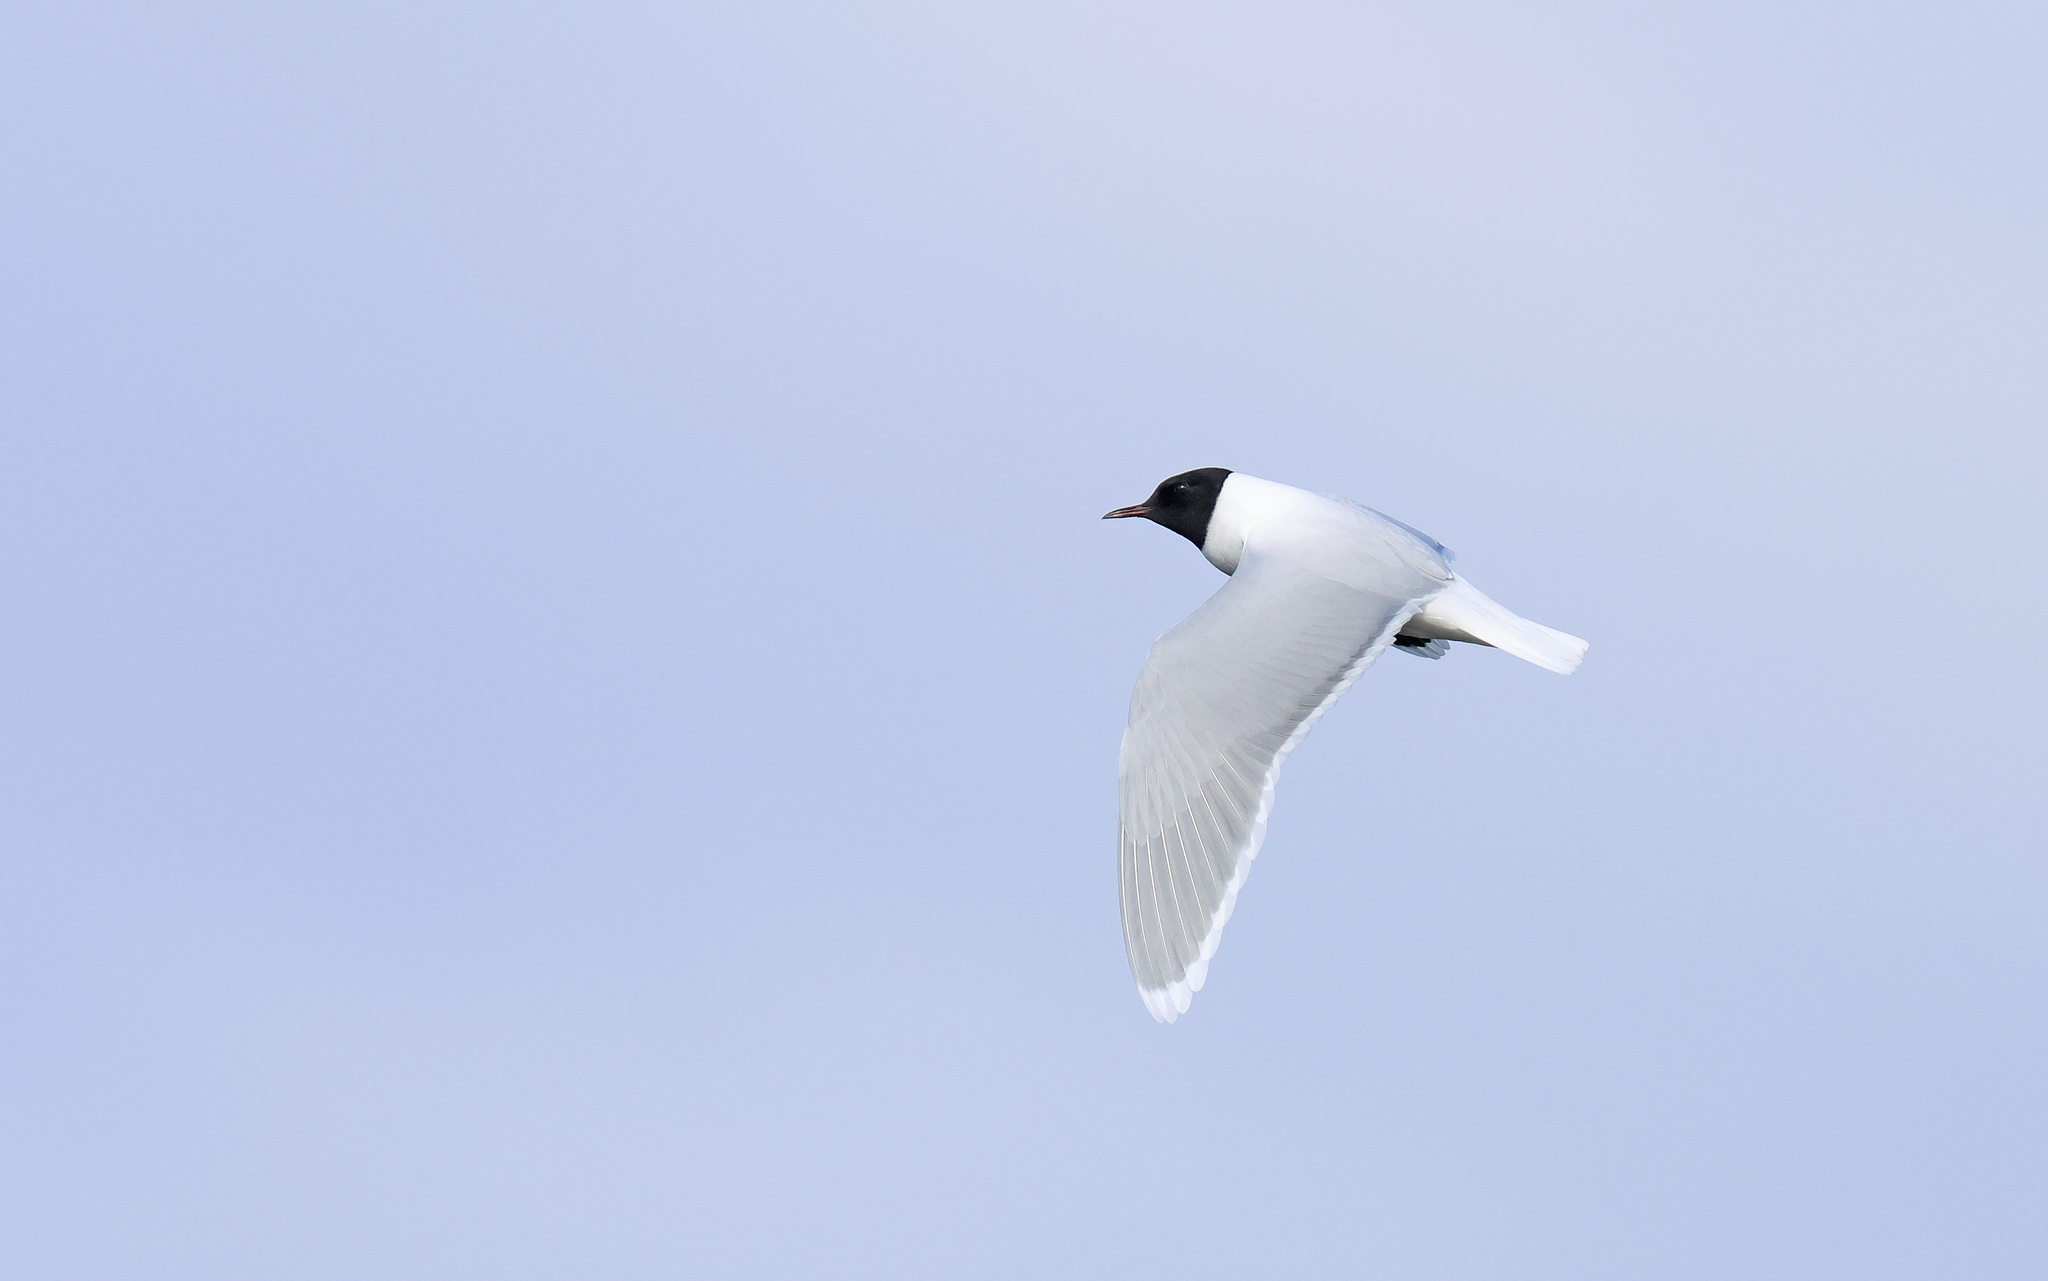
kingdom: Animalia
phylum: Chordata
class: Aves
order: Charadriiformes
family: Laridae
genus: Hydrocoloeus
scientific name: Hydrocoloeus minutus
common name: Little gull
